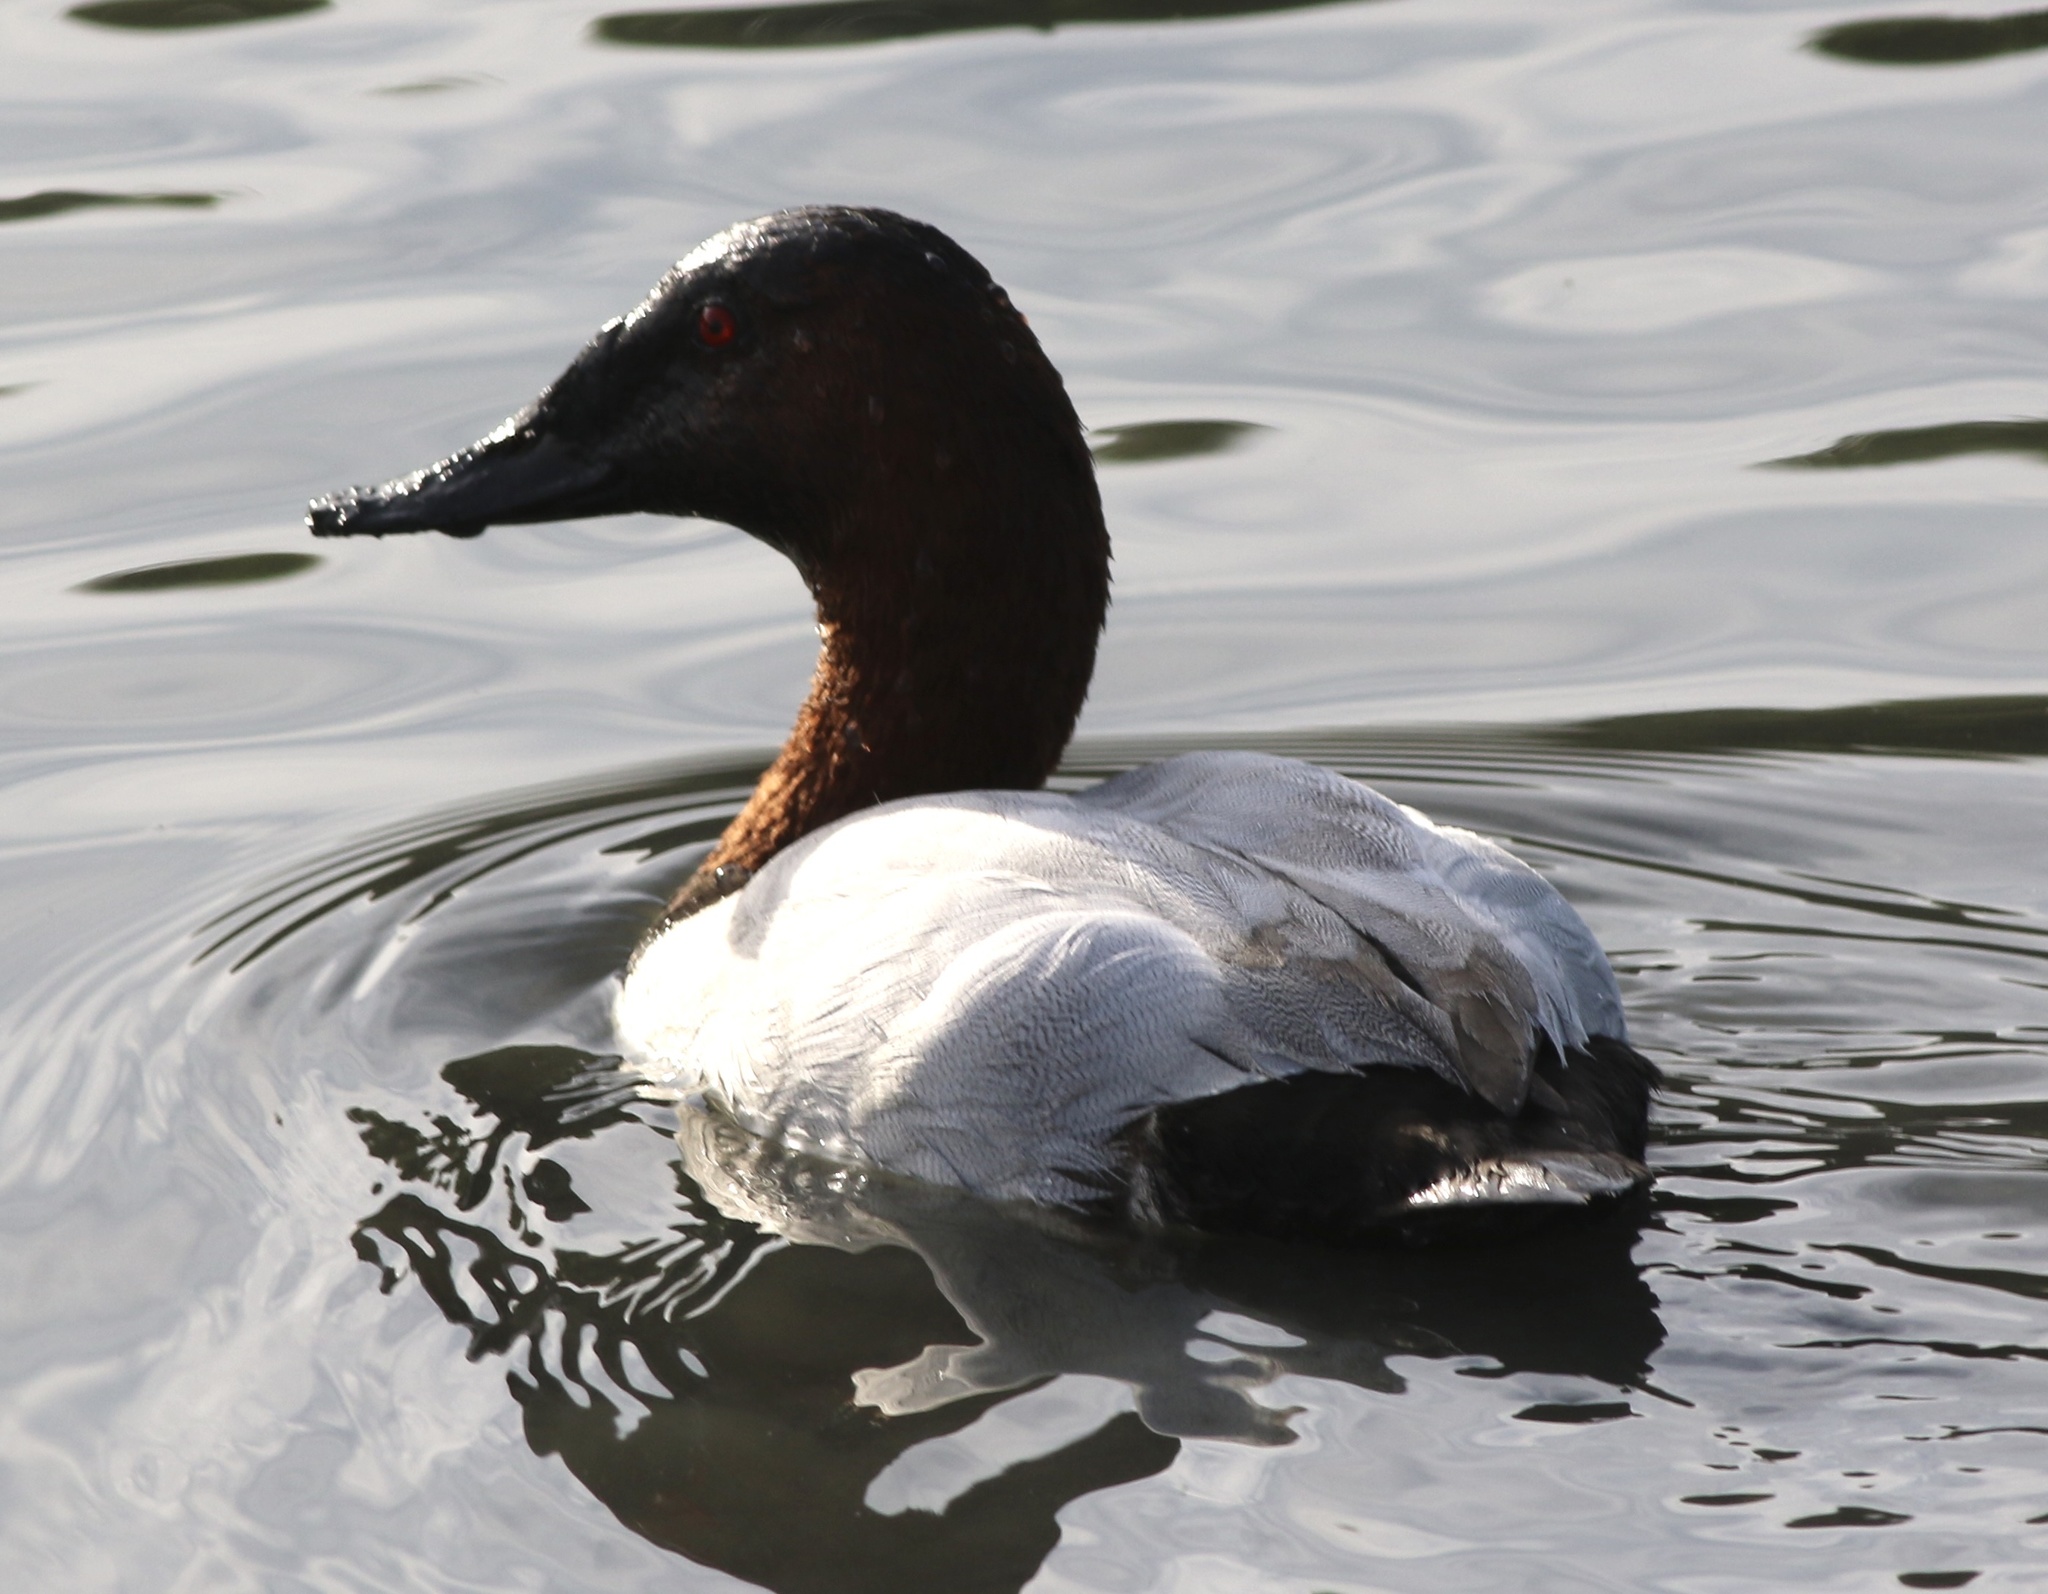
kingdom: Animalia
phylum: Chordata
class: Aves
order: Anseriformes
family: Anatidae
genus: Aythya
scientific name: Aythya valisineria
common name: Canvasback
